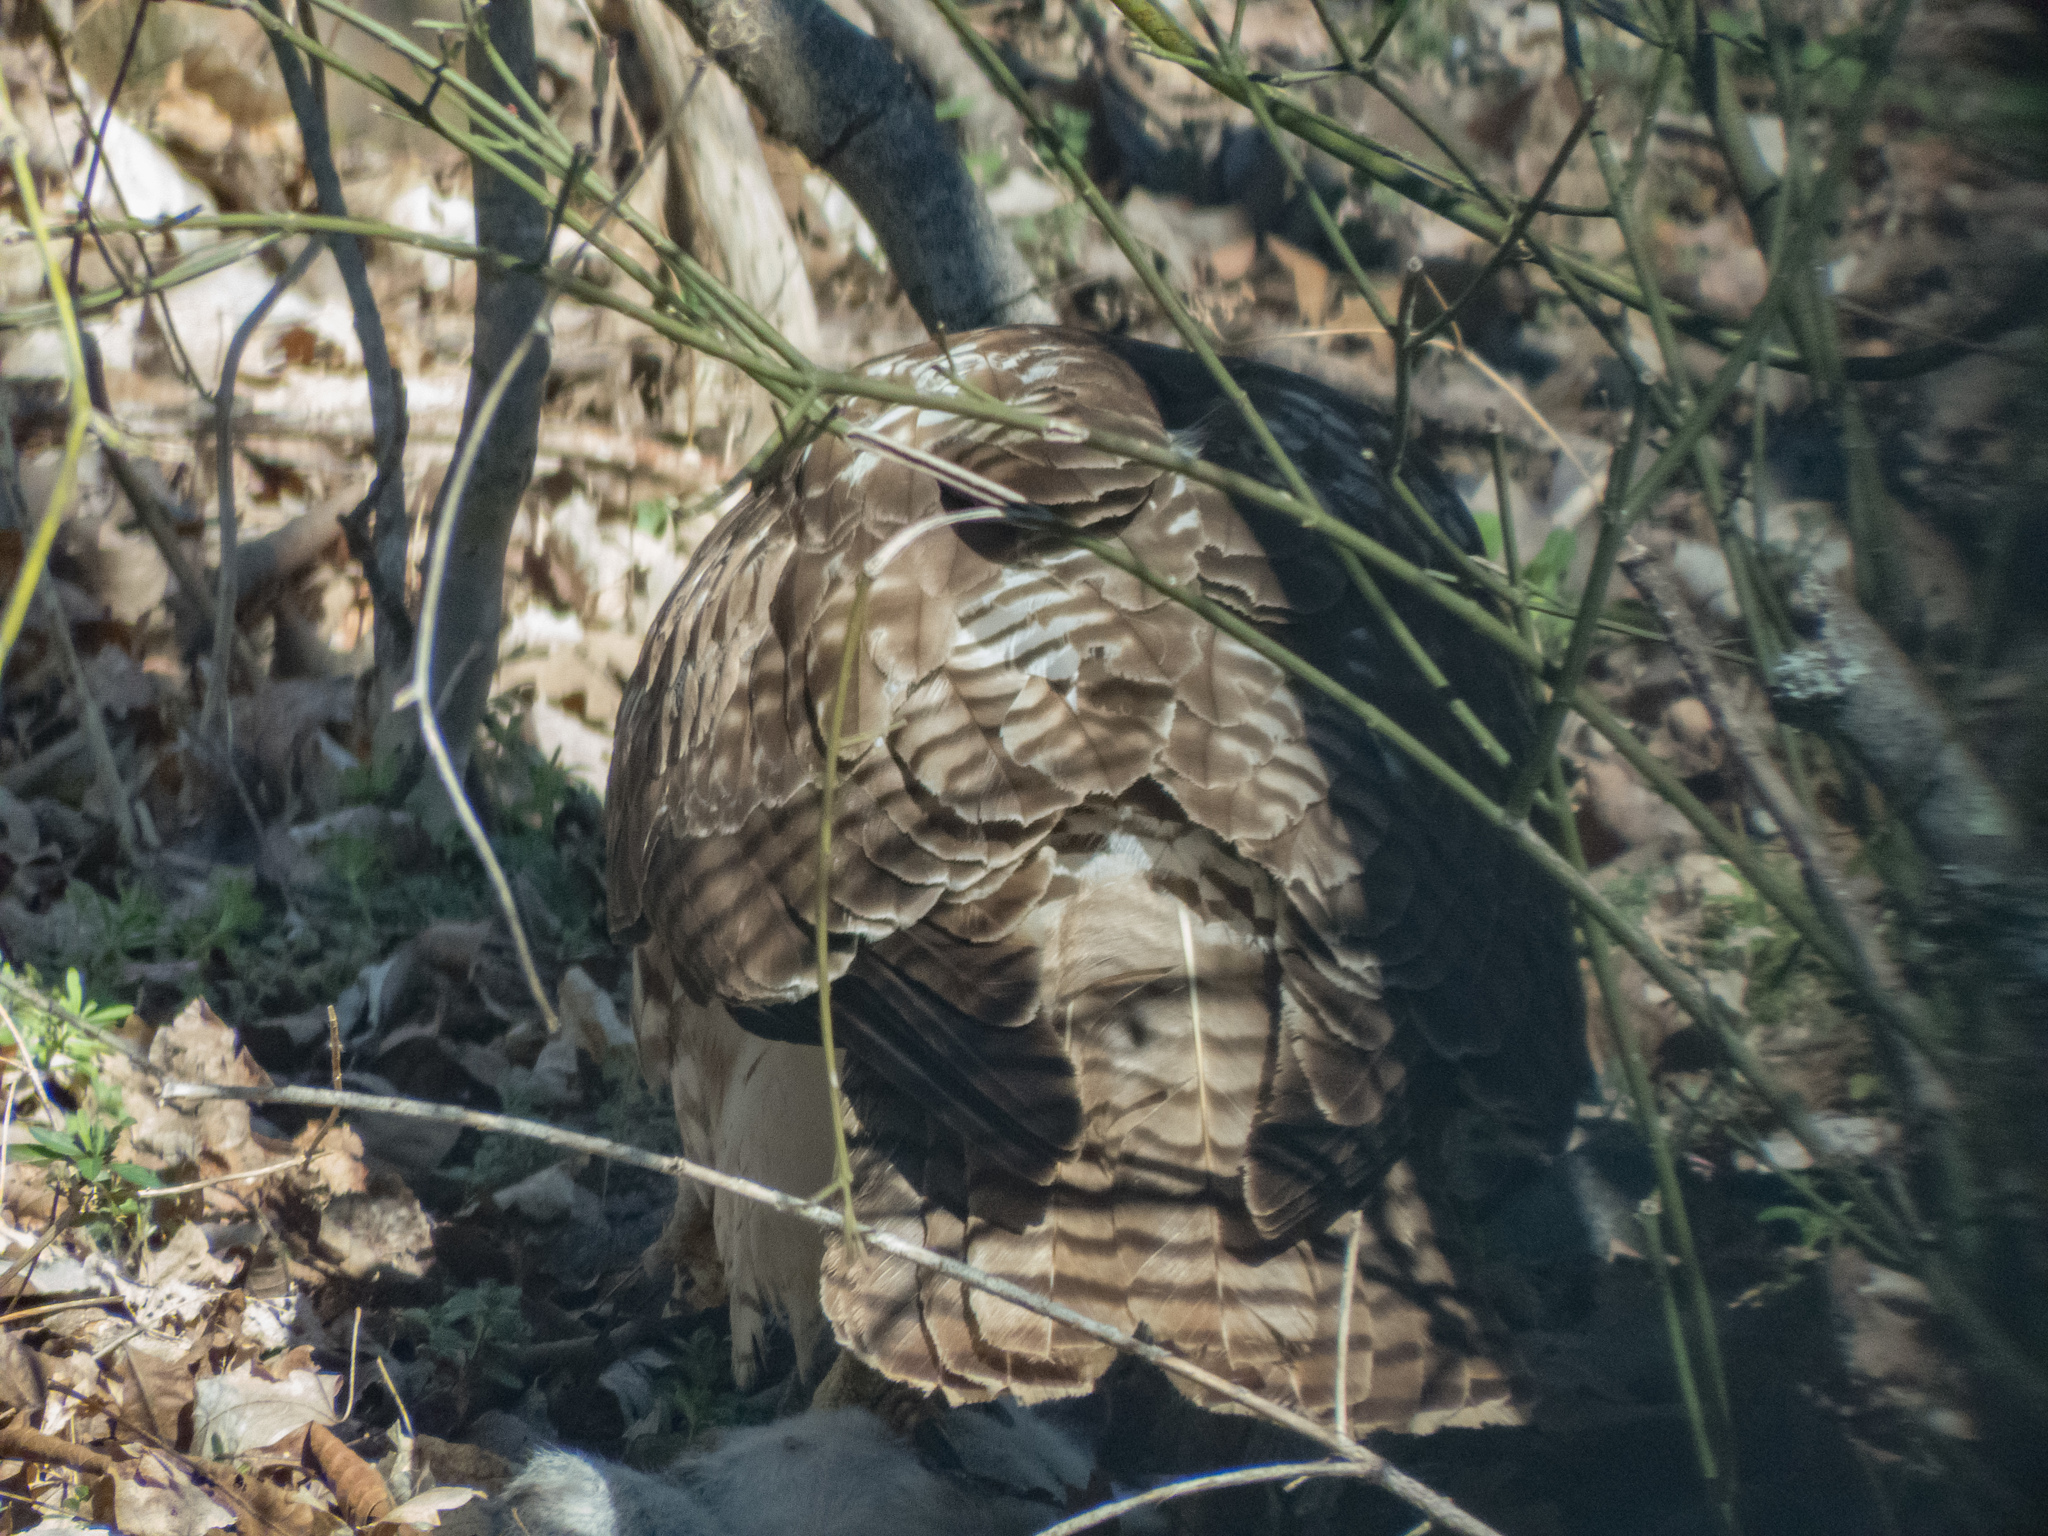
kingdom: Animalia
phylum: Chordata
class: Aves
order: Accipitriformes
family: Accipitridae
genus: Buteo
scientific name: Buteo jamaicensis
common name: Red-tailed hawk
